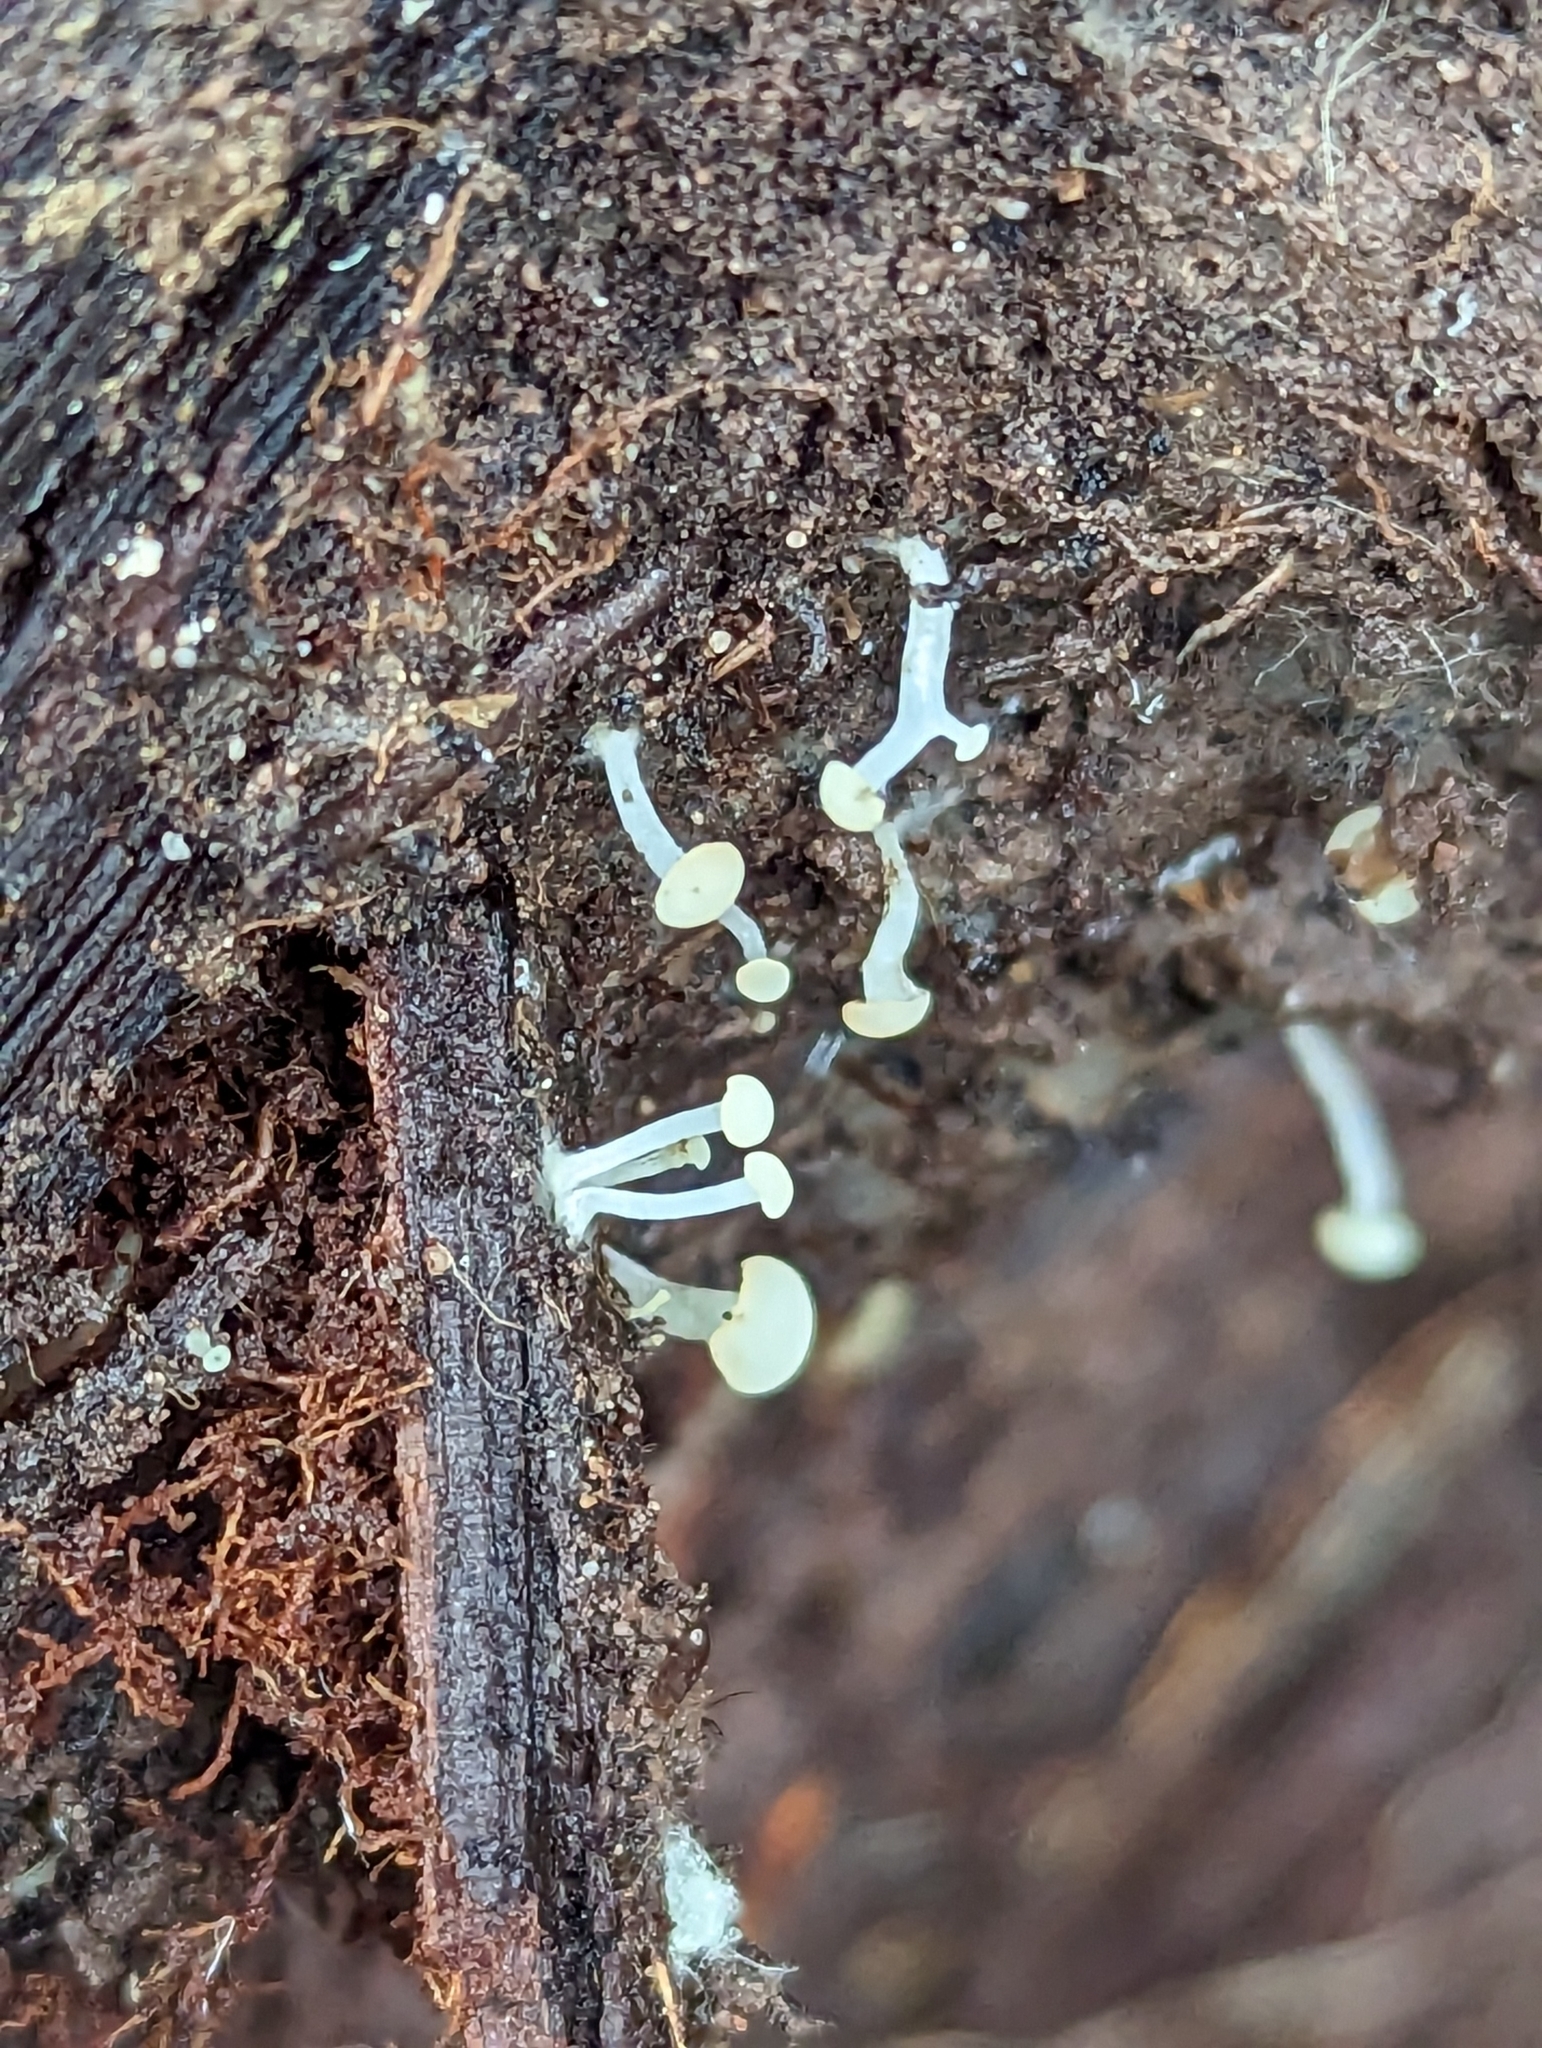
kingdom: Fungi
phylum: Ascomycota
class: Leotiomycetes
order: Helotiales
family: Tricladiaceae
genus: Cudoniella
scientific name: Cudoniella acicularis
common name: Oak pin
